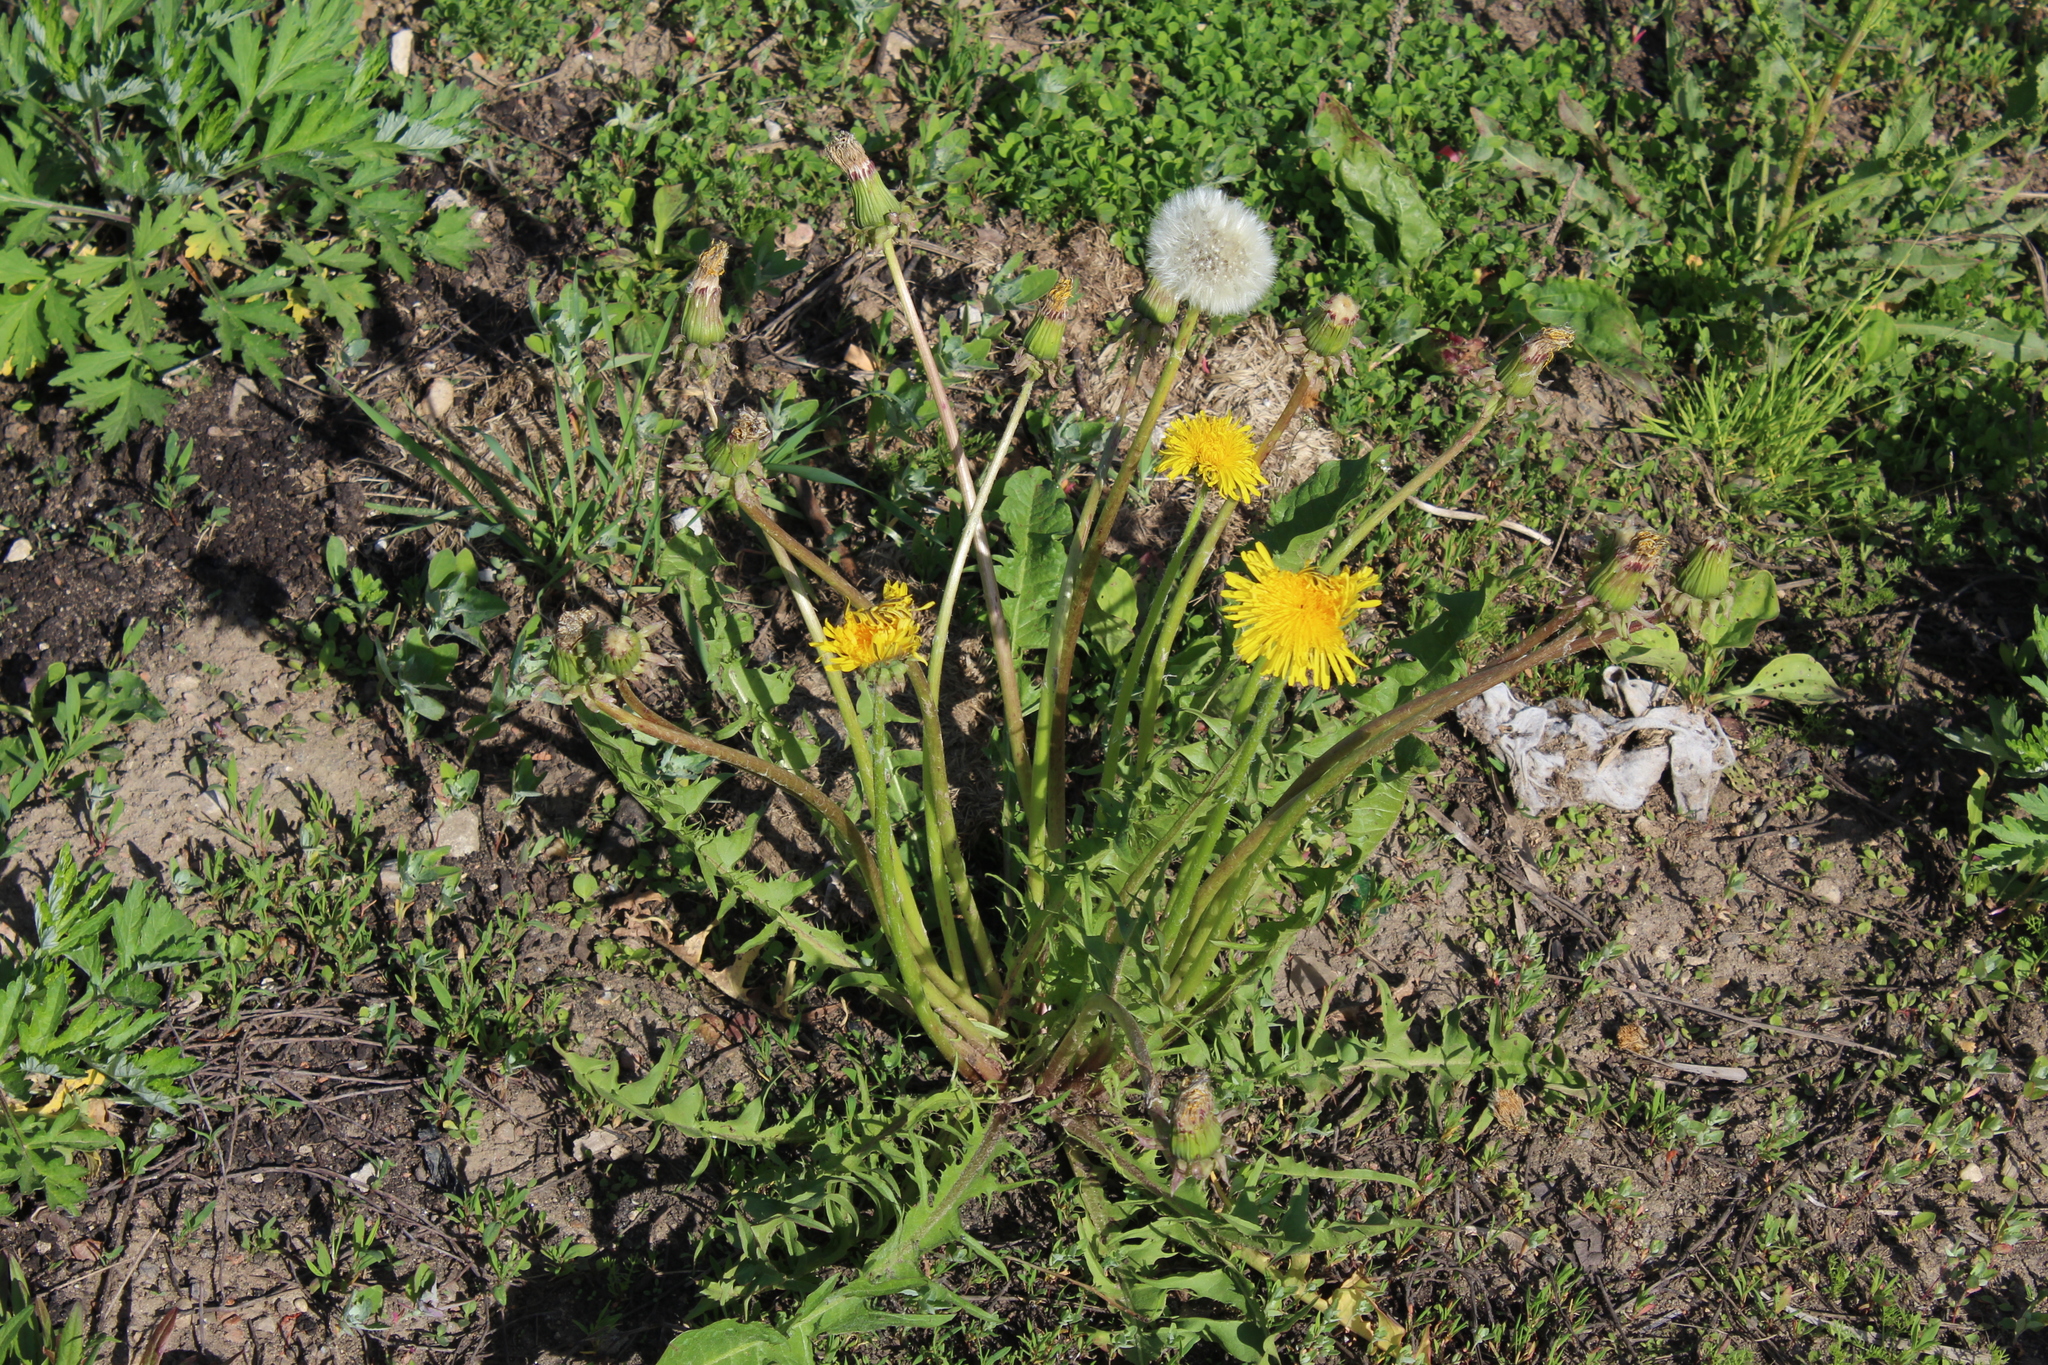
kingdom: Plantae
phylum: Tracheophyta
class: Magnoliopsida
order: Asterales
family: Asteraceae
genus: Taraxacum
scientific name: Taraxacum officinale
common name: Common dandelion
